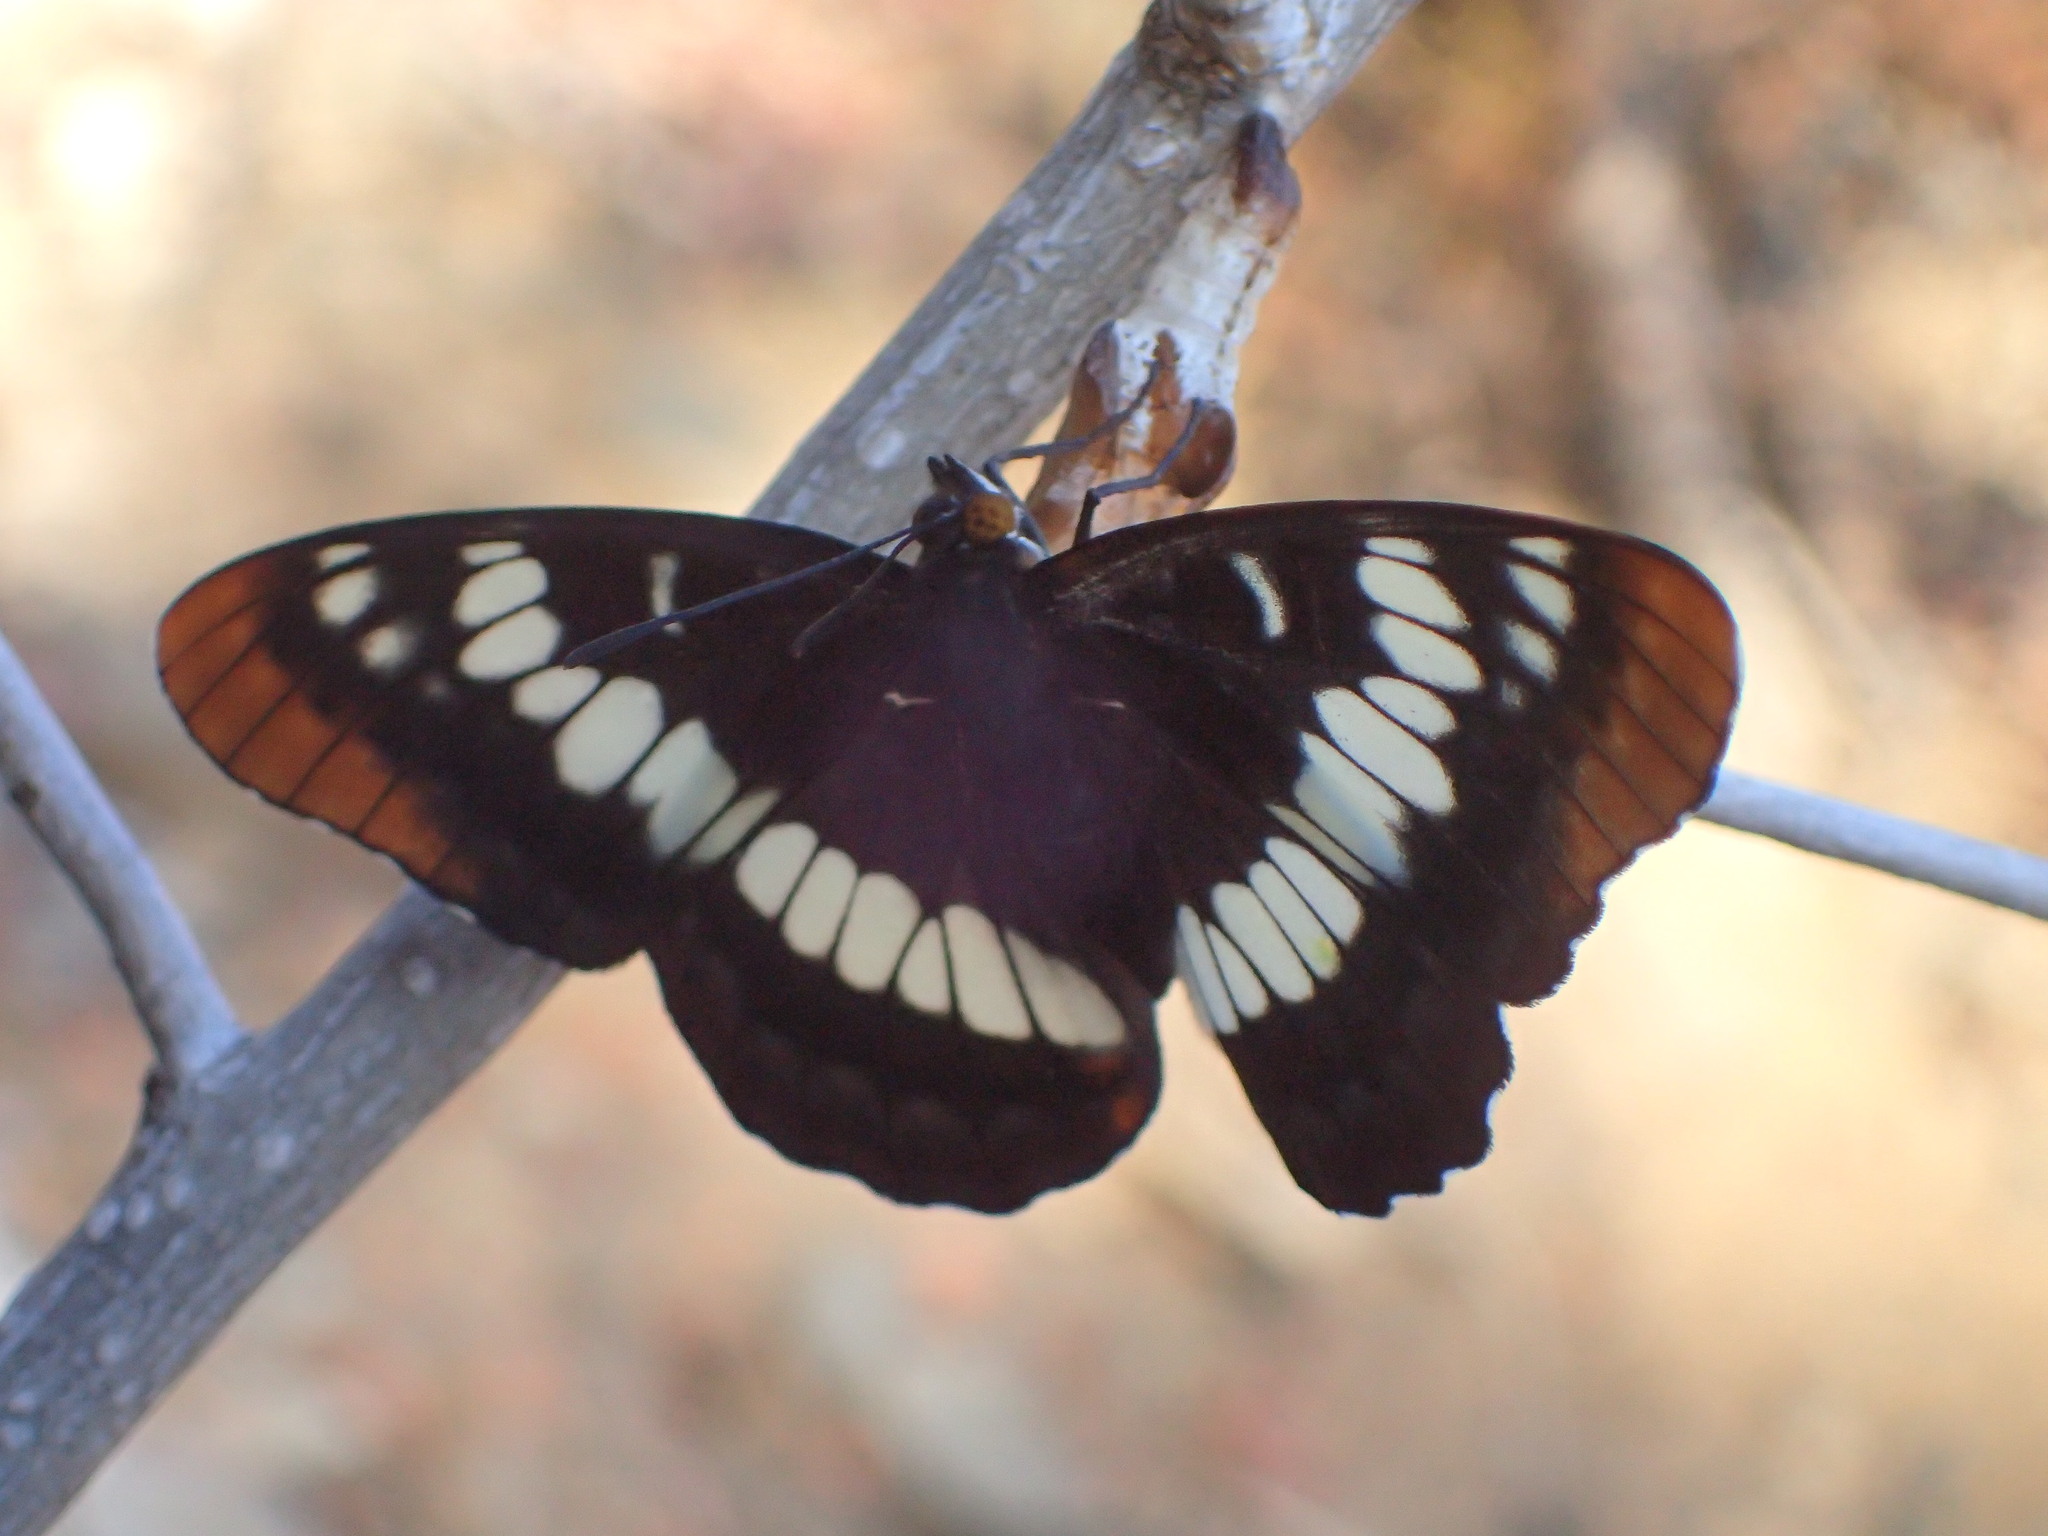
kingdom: Animalia
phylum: Arthropoda
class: Insecta
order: Lepidoptera
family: Nymphalidae
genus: Limenitis
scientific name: Limenitis lorquini
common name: Lorquin's admiral
